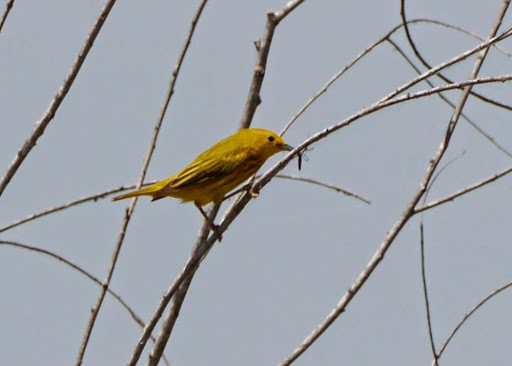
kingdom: Animalia
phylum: Chordata
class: Aves
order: Passeriformes
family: Parulidae
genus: Setophaga
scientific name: Setophaga petechia
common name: Yellow warbler
